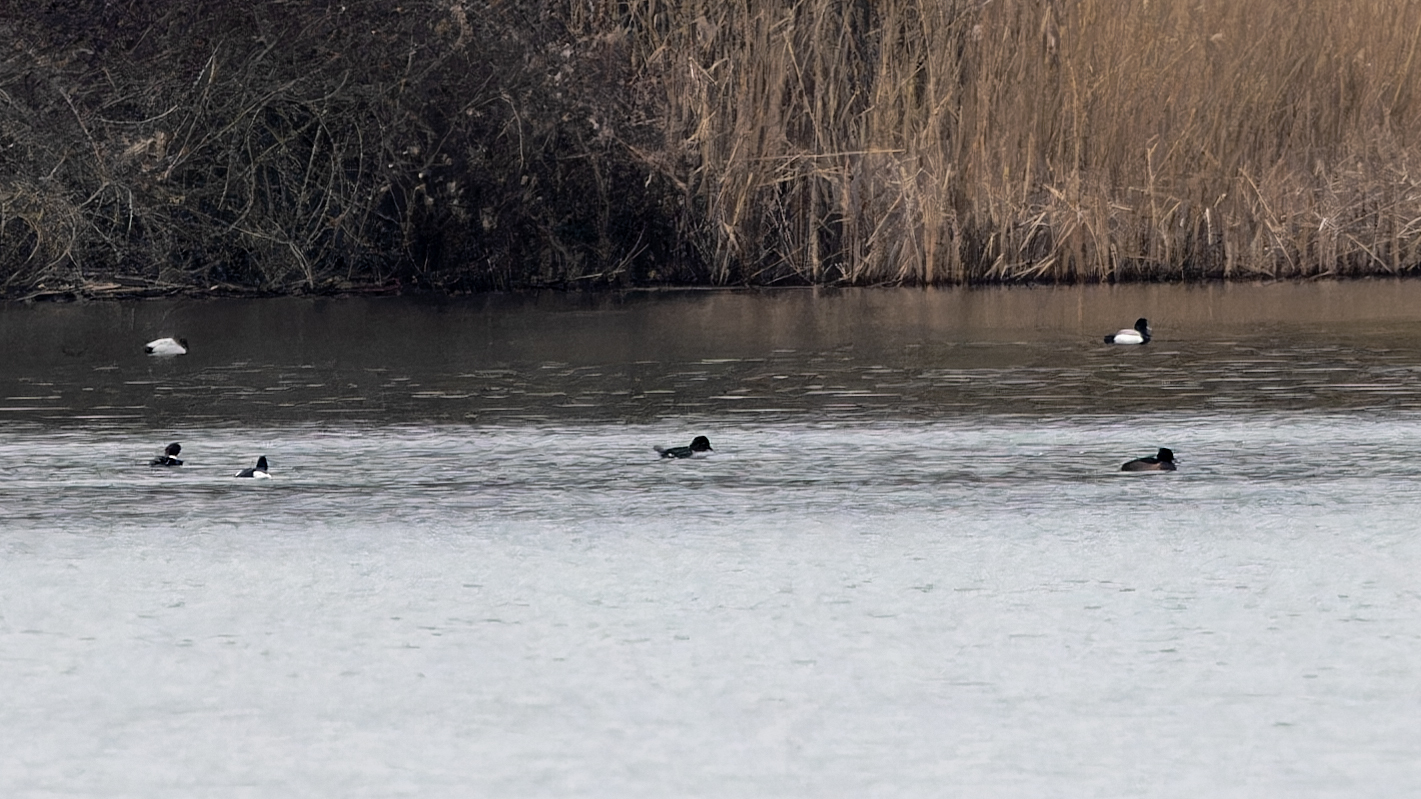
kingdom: Animalia
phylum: Chordata
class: Aves
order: Anseriformes
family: Anatidae
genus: Bucephala
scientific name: Bucephala clangula
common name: Common goldeneye
